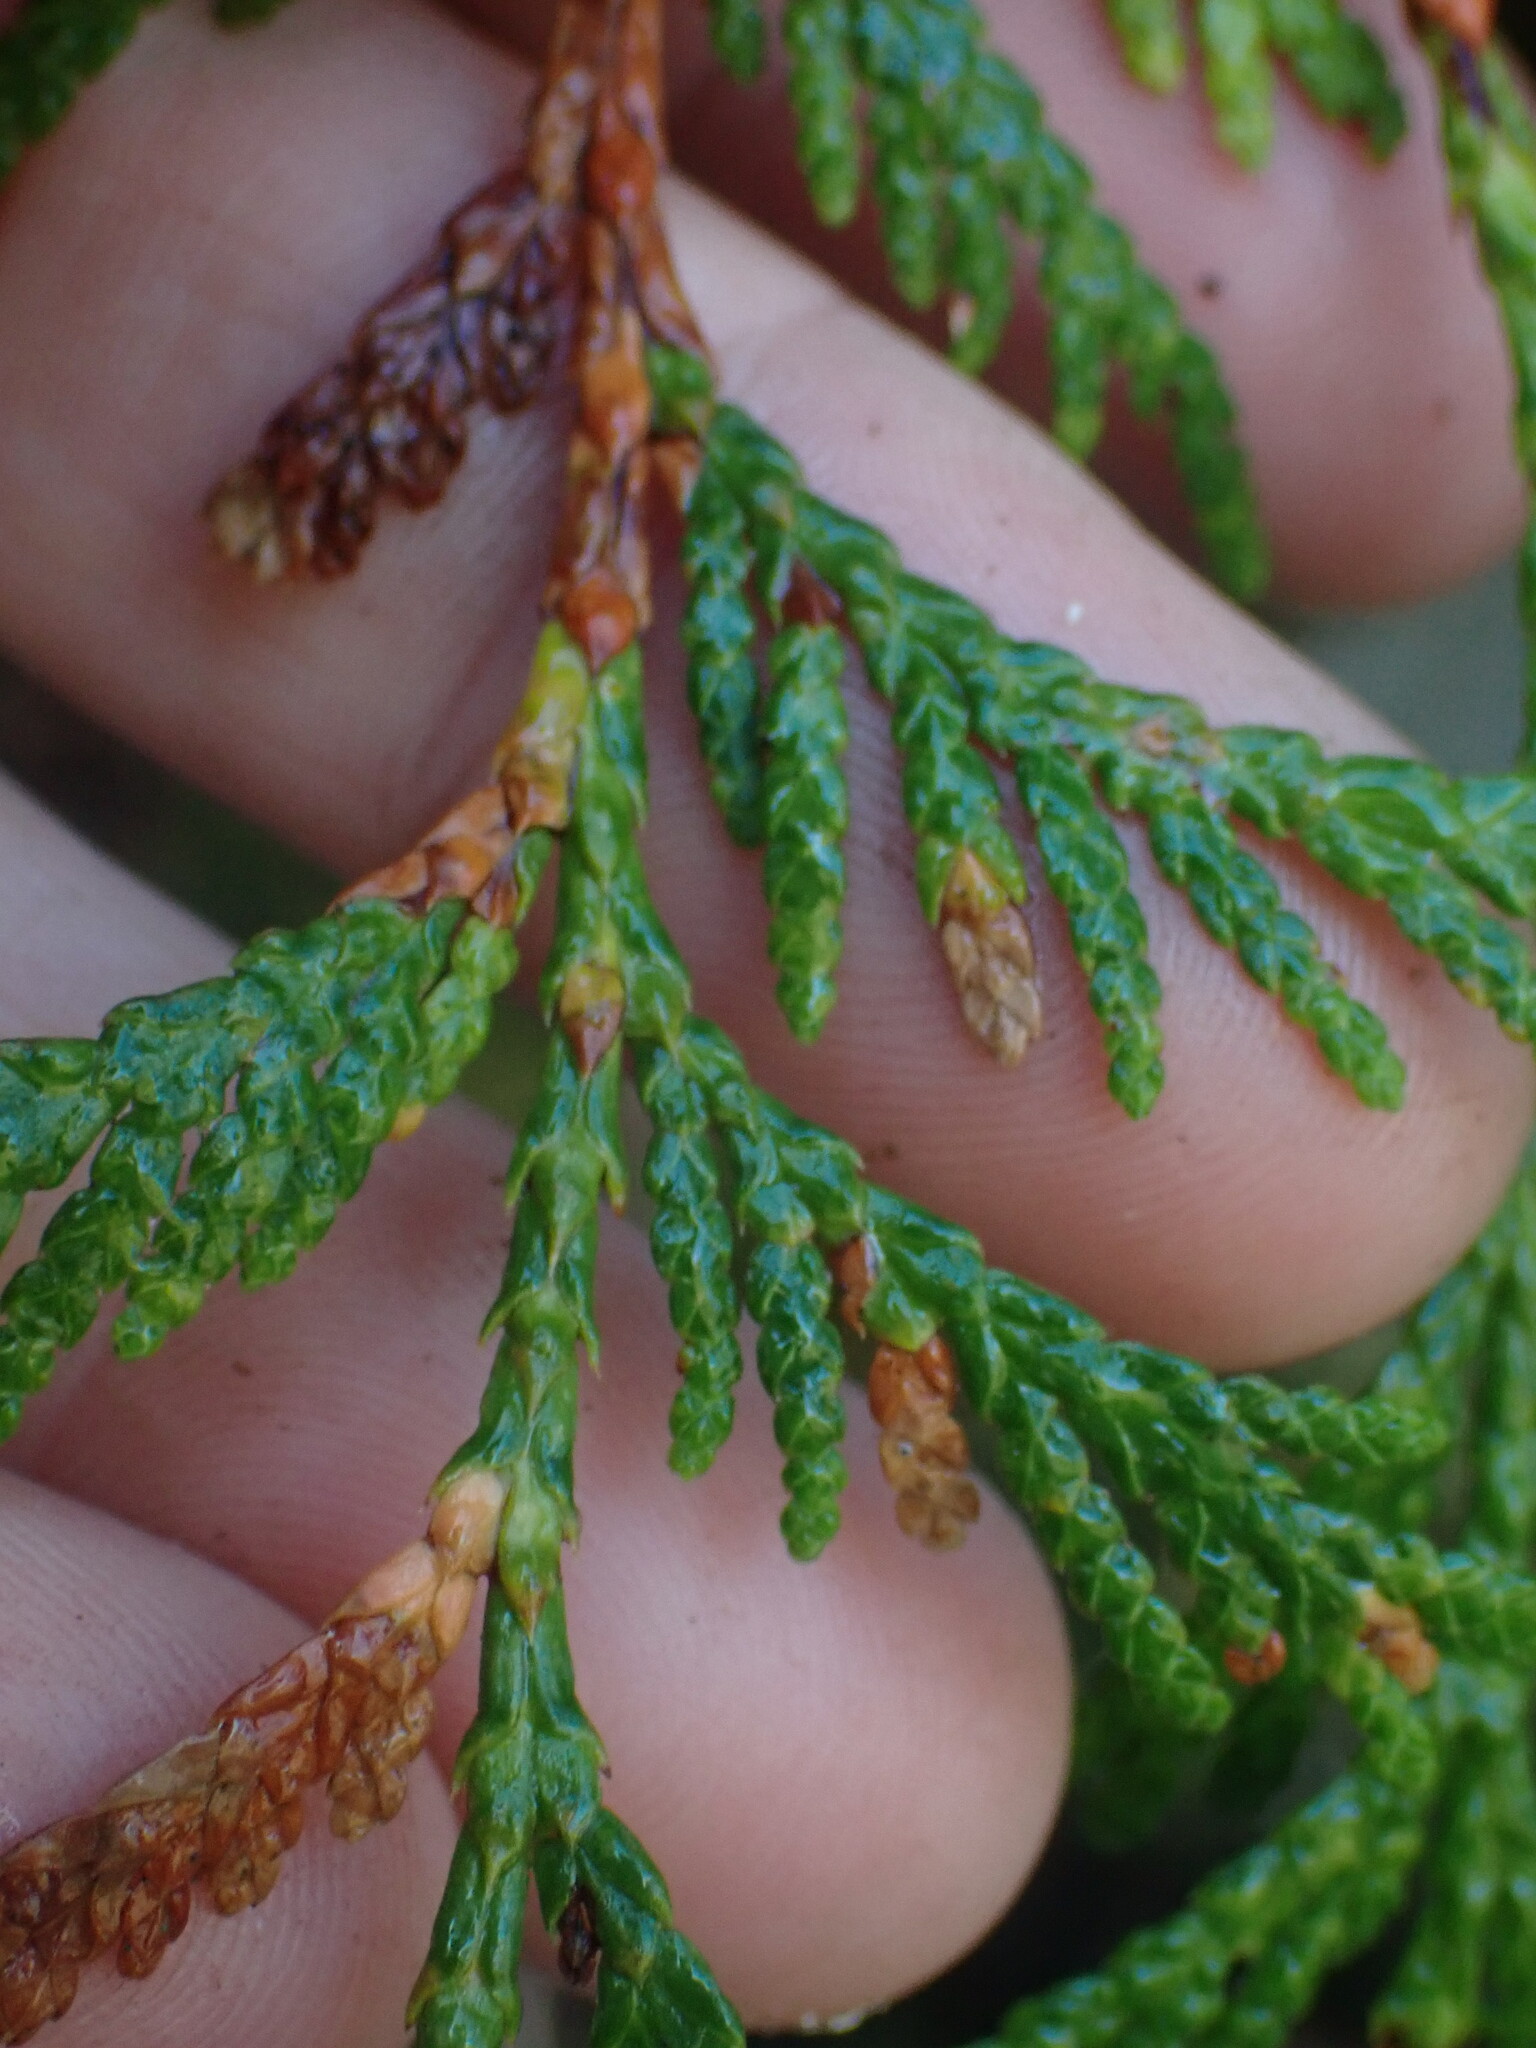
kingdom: Plantae
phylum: Tracheophyta
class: Pinopsida
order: Pinales
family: Cupressaceae
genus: Thuja
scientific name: Thuja plicata
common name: Western red-cedar
